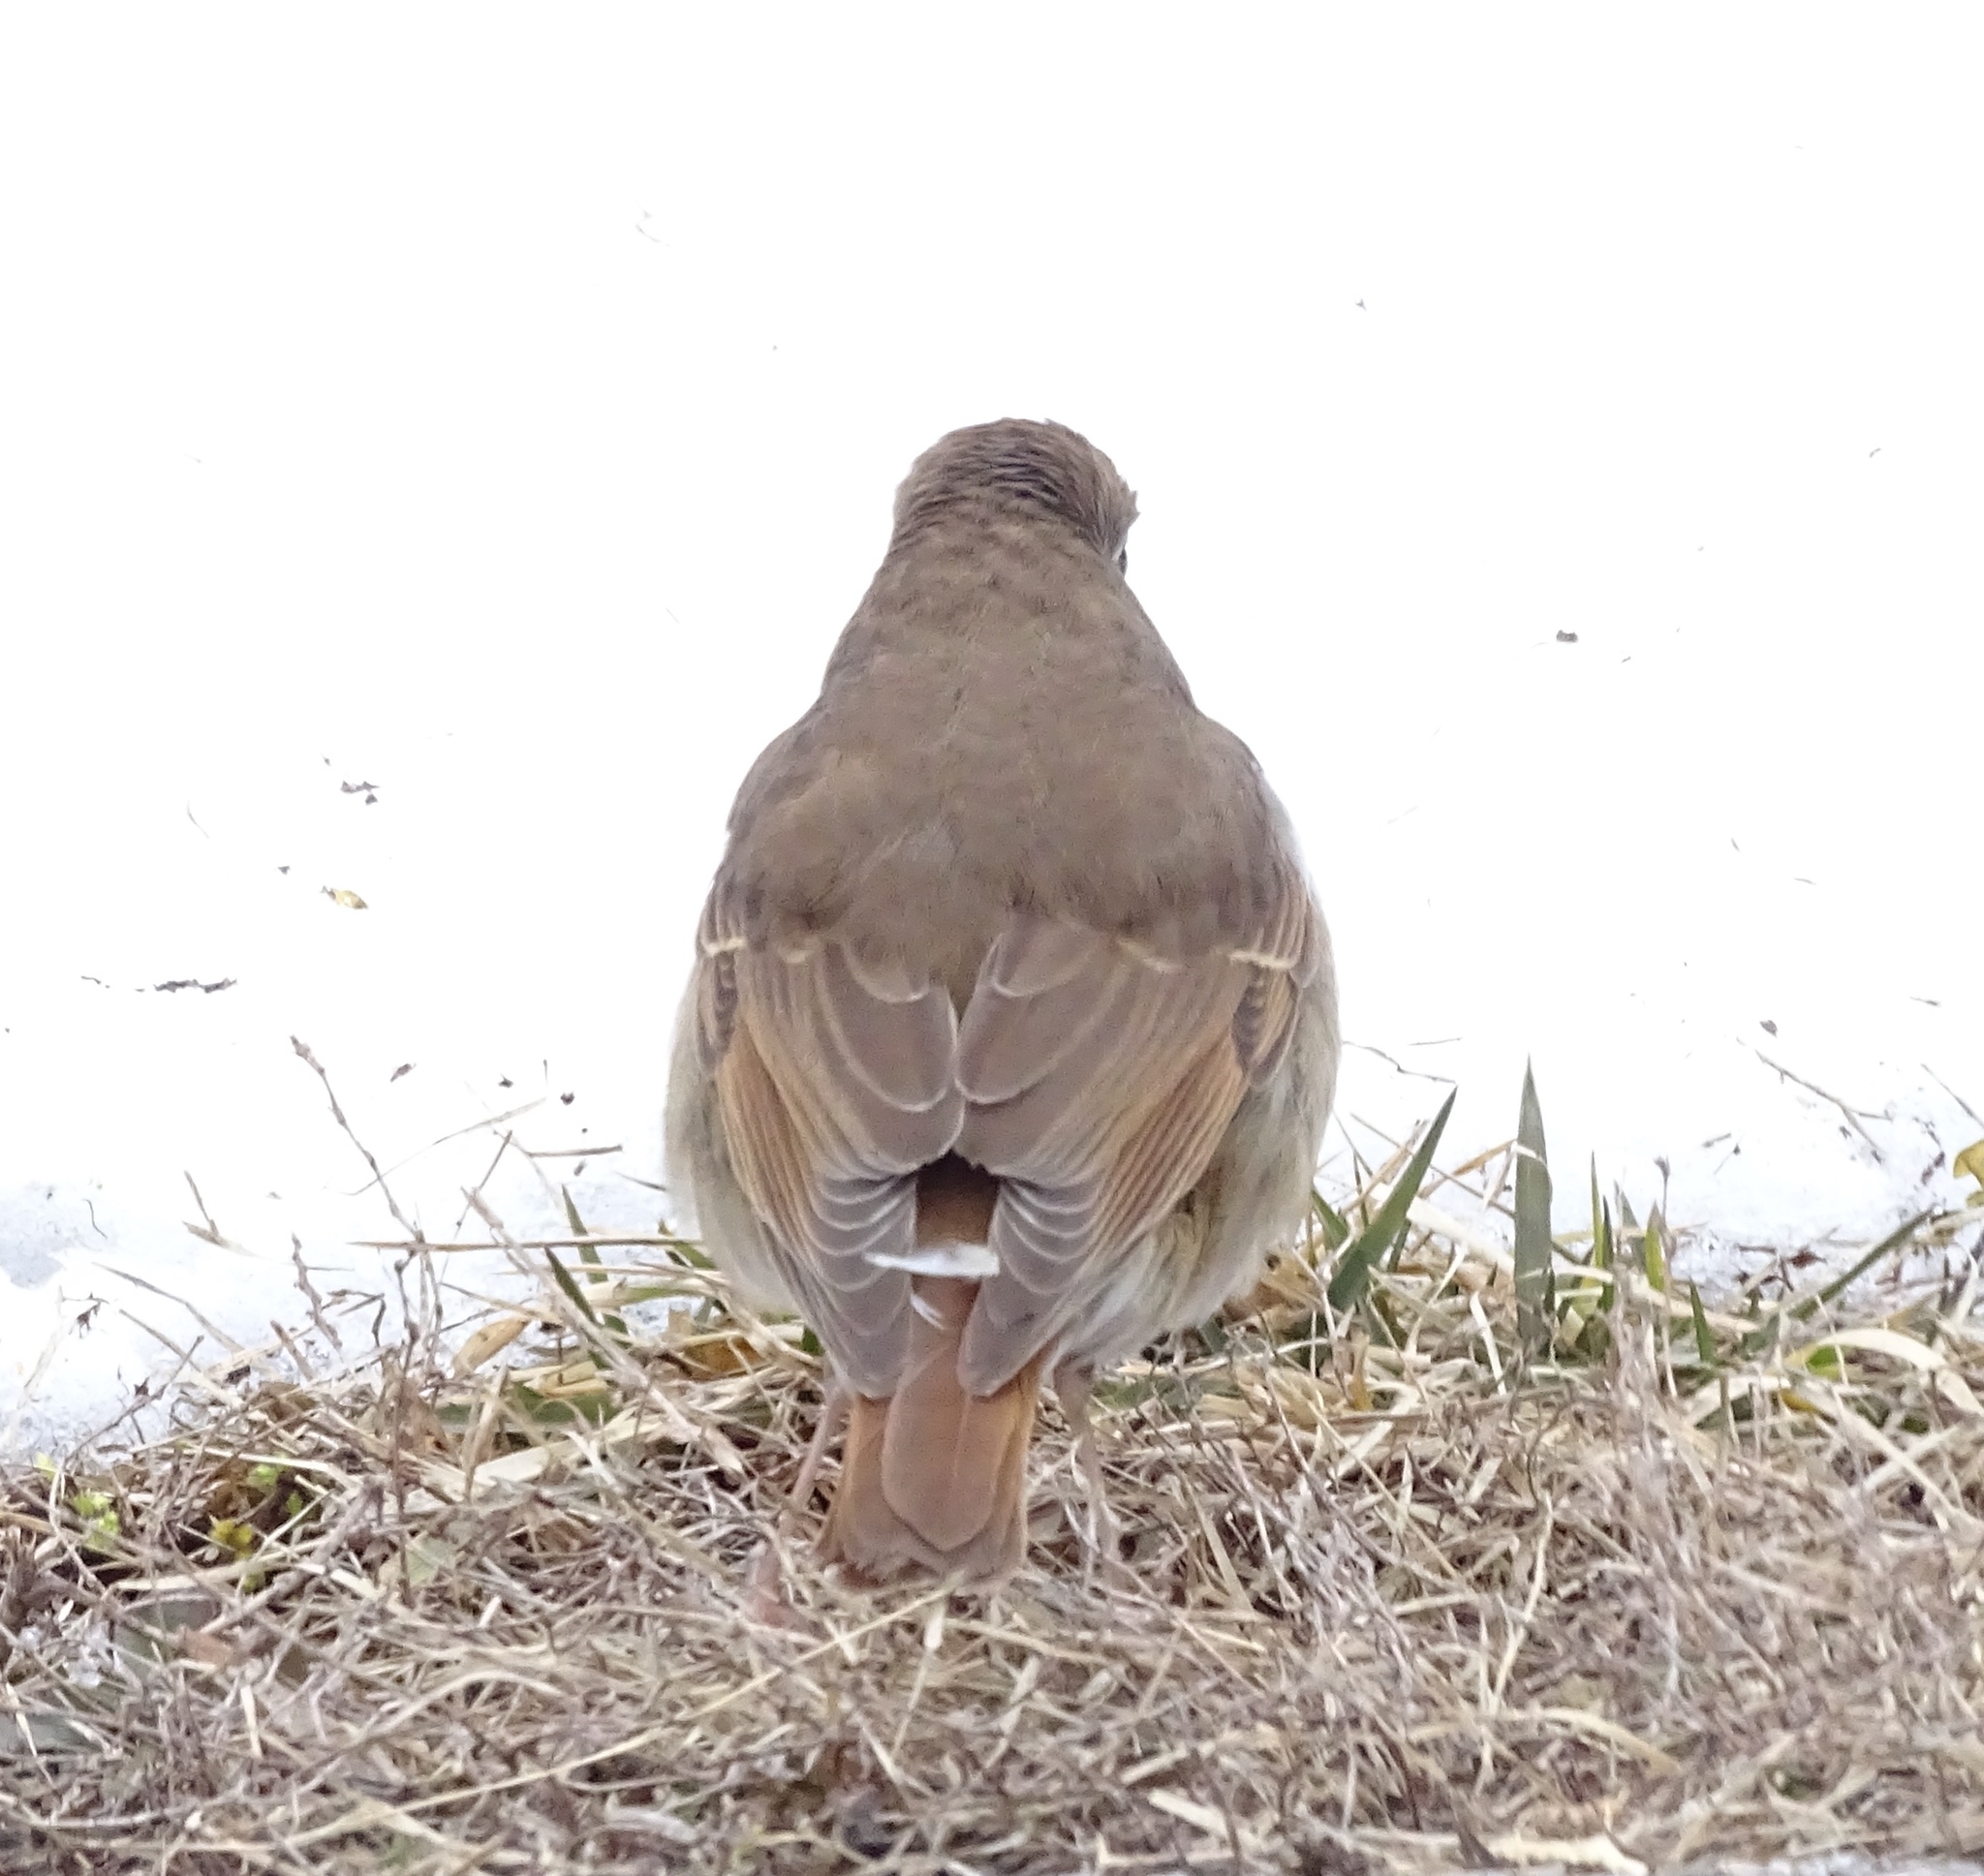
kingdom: Animalia
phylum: Chordata
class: Aves
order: Passeriformes
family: Turdidae
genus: Catharus
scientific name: Catharus guttatus
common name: Hermit thrush
